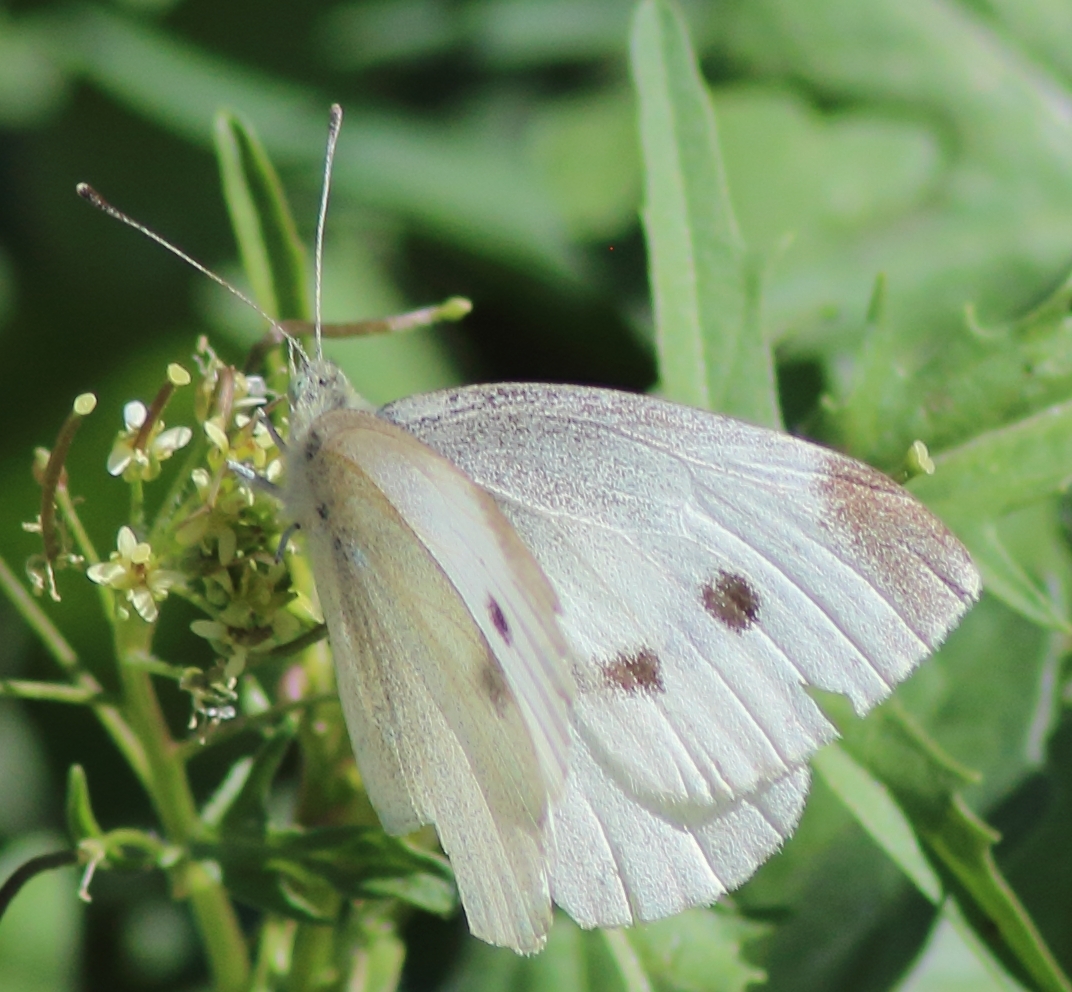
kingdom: Animalia
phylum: Arthropoda
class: Insecta
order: Lepidoptera
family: Pieridae
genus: Pieris
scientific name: Pieris rapae
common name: Small white
